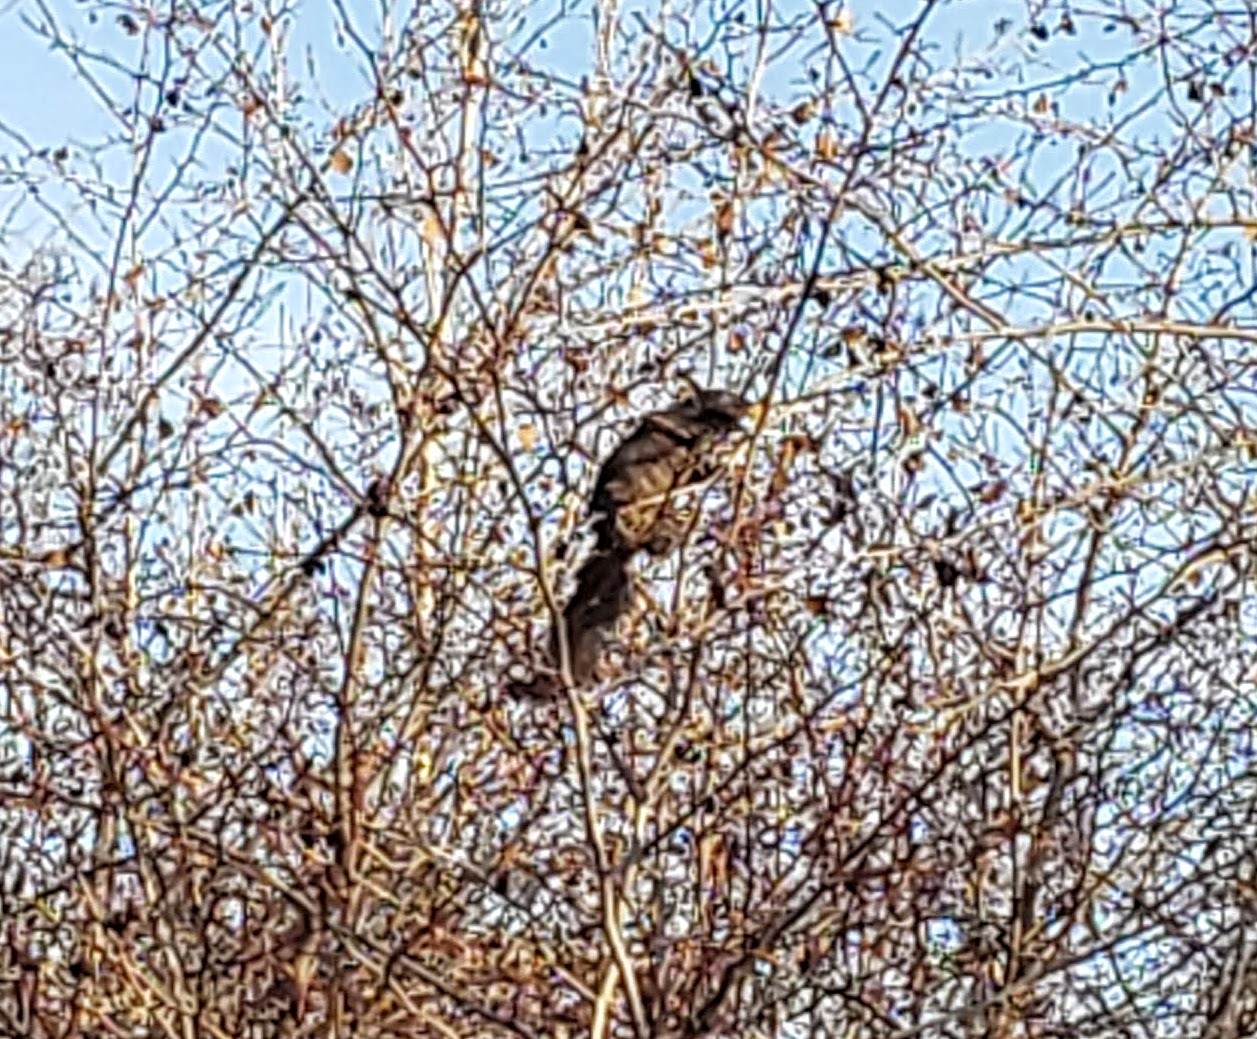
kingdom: Animalia
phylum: Chordata
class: Mammalia
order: Rodentia
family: Sciuridae
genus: Sciurus
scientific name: Sciurus carolinensis
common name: Eastern gray squirrel
